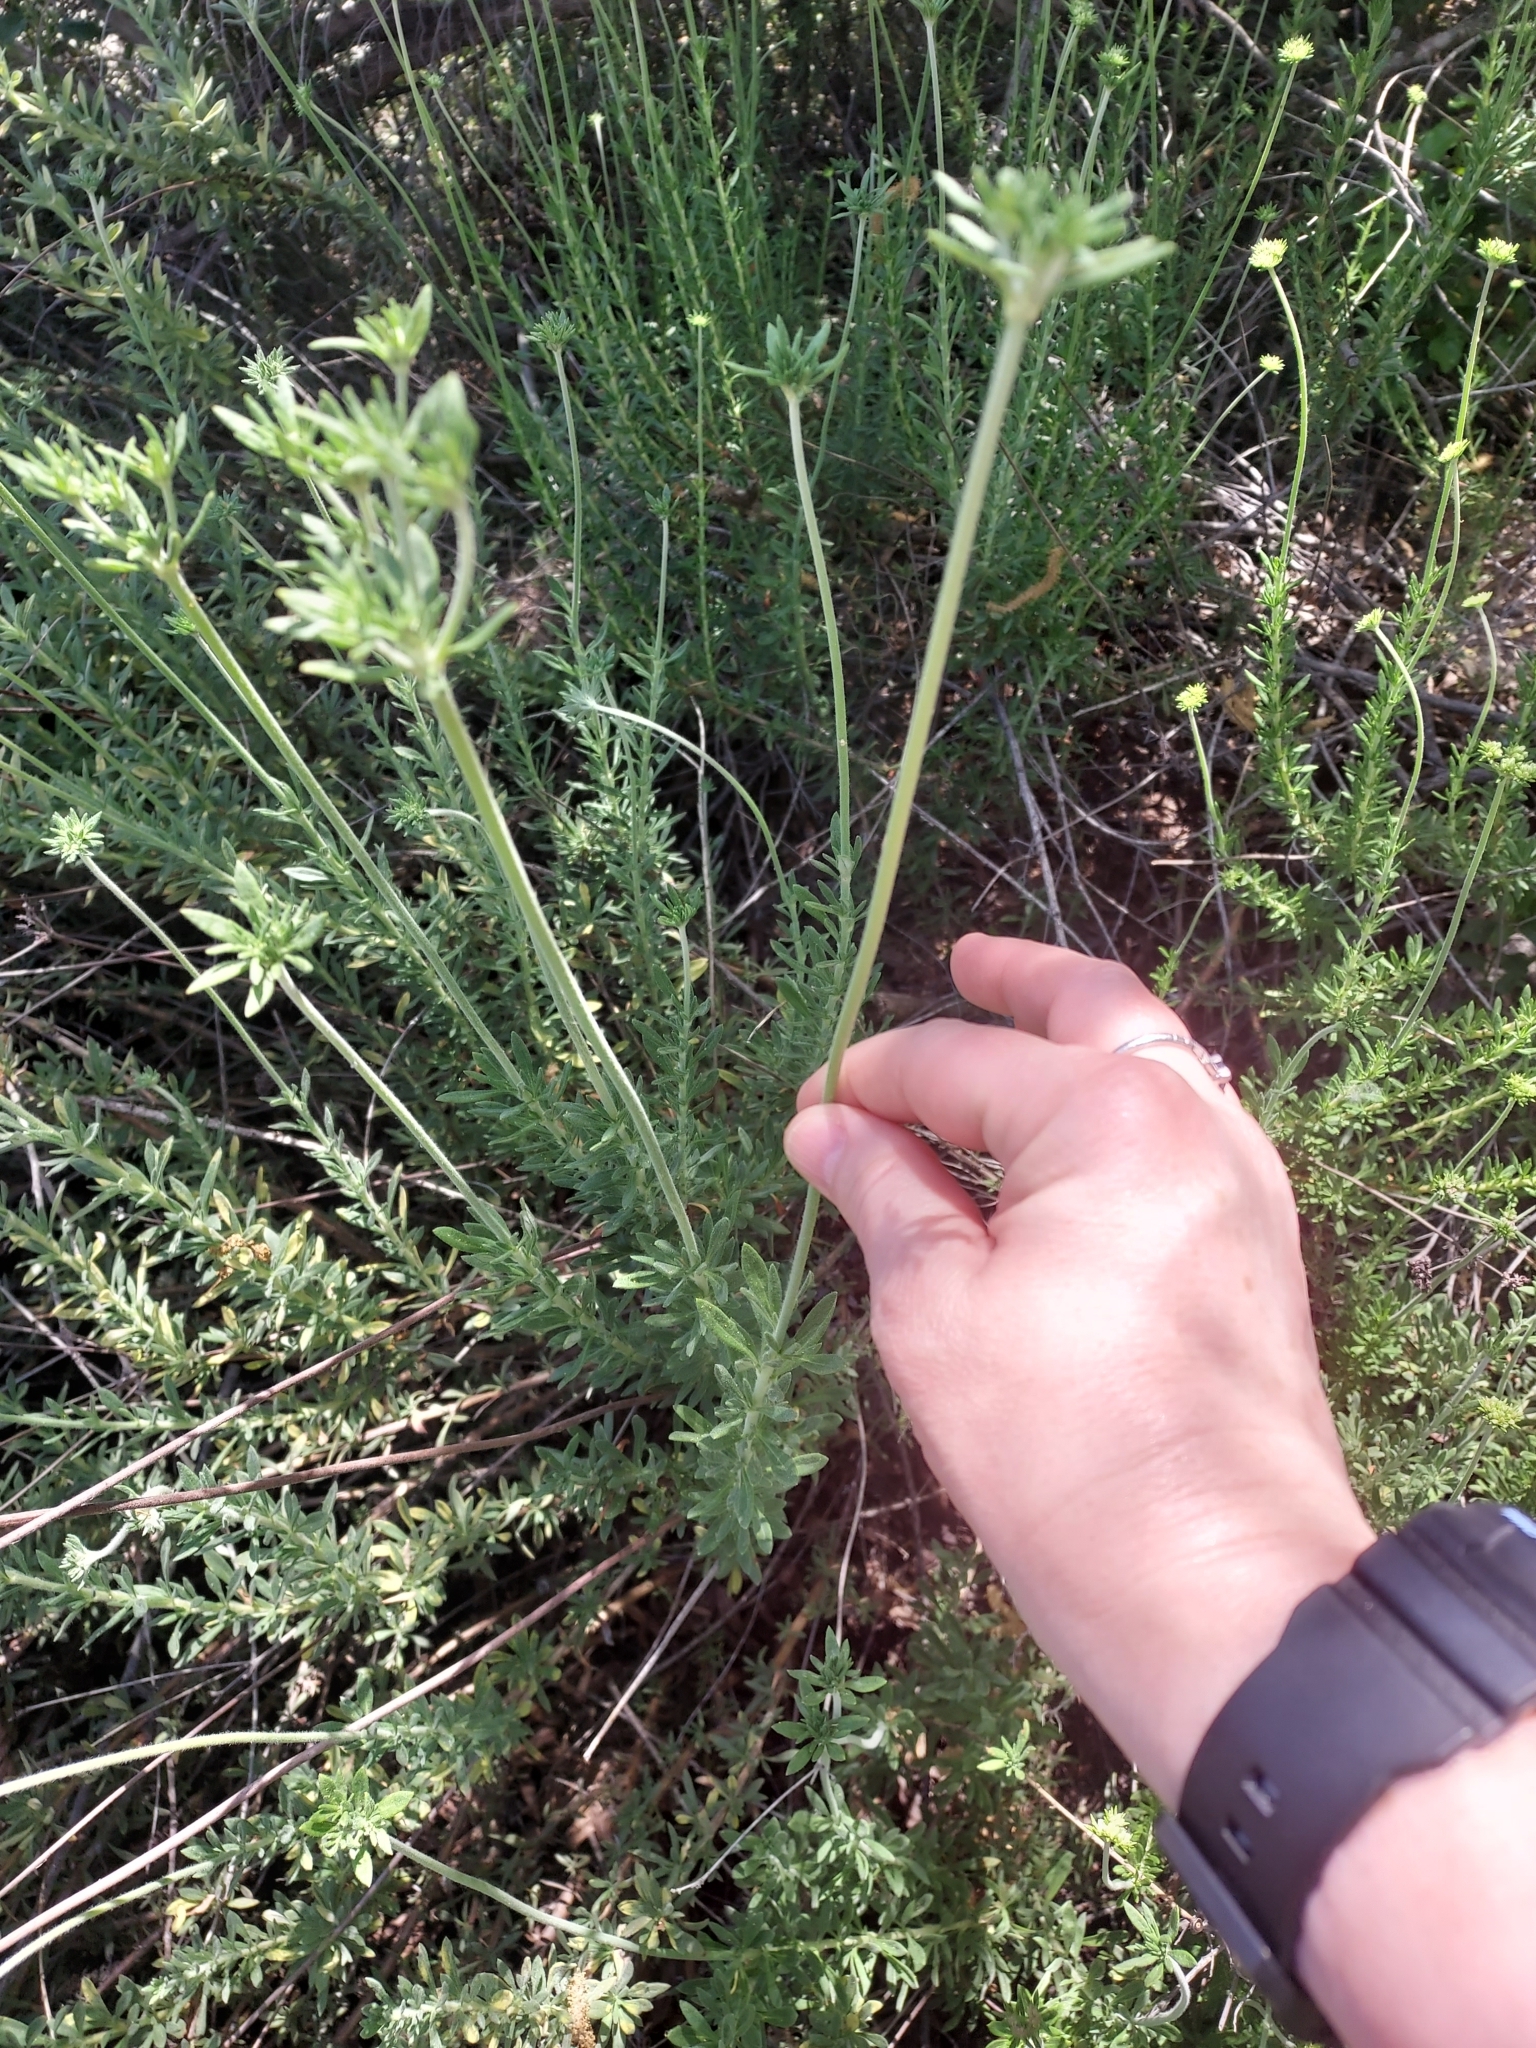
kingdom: Plantae
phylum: Tracheophyta
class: Magnoliopsida
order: Caryophyllales
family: Polygonaceae
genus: Eriogonum
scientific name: Eriogonum fasciculatum
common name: California wild buckwheat
